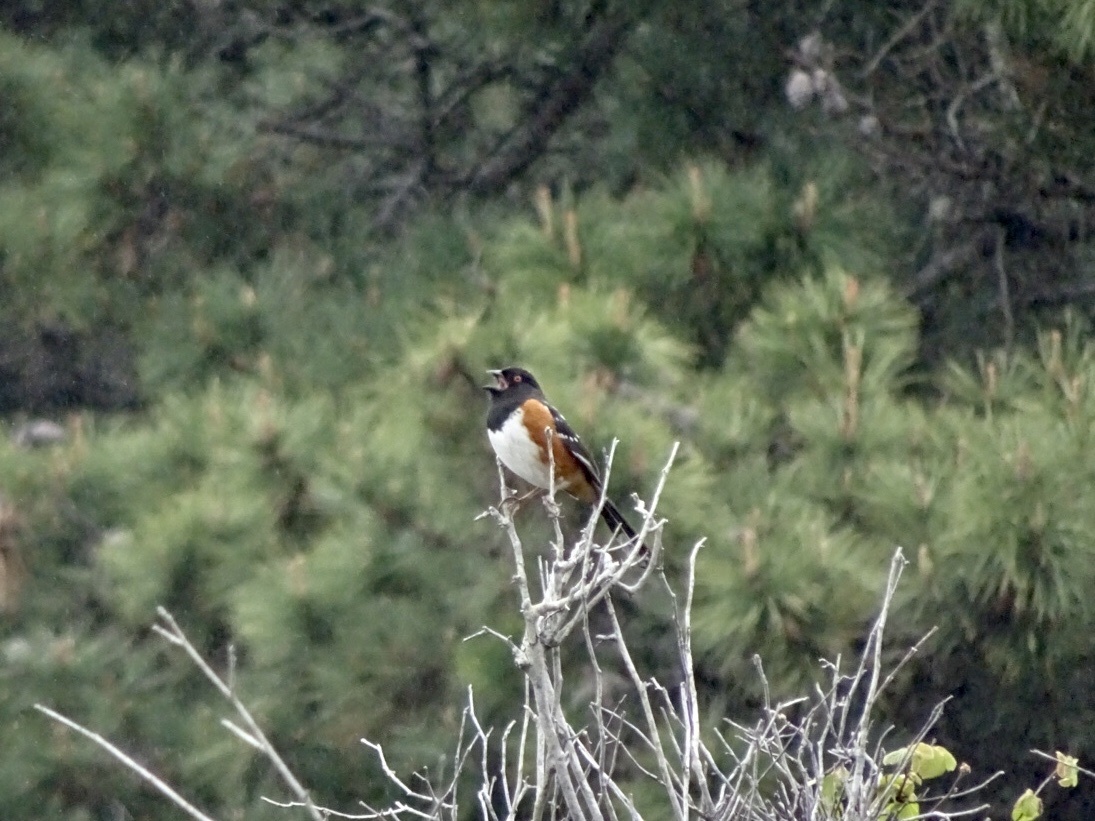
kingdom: Animalia
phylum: Chordata
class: Aves
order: Passeriformes
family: Passerellidae
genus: Pipilo
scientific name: Pipilo maculatus
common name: Spotted towhee
